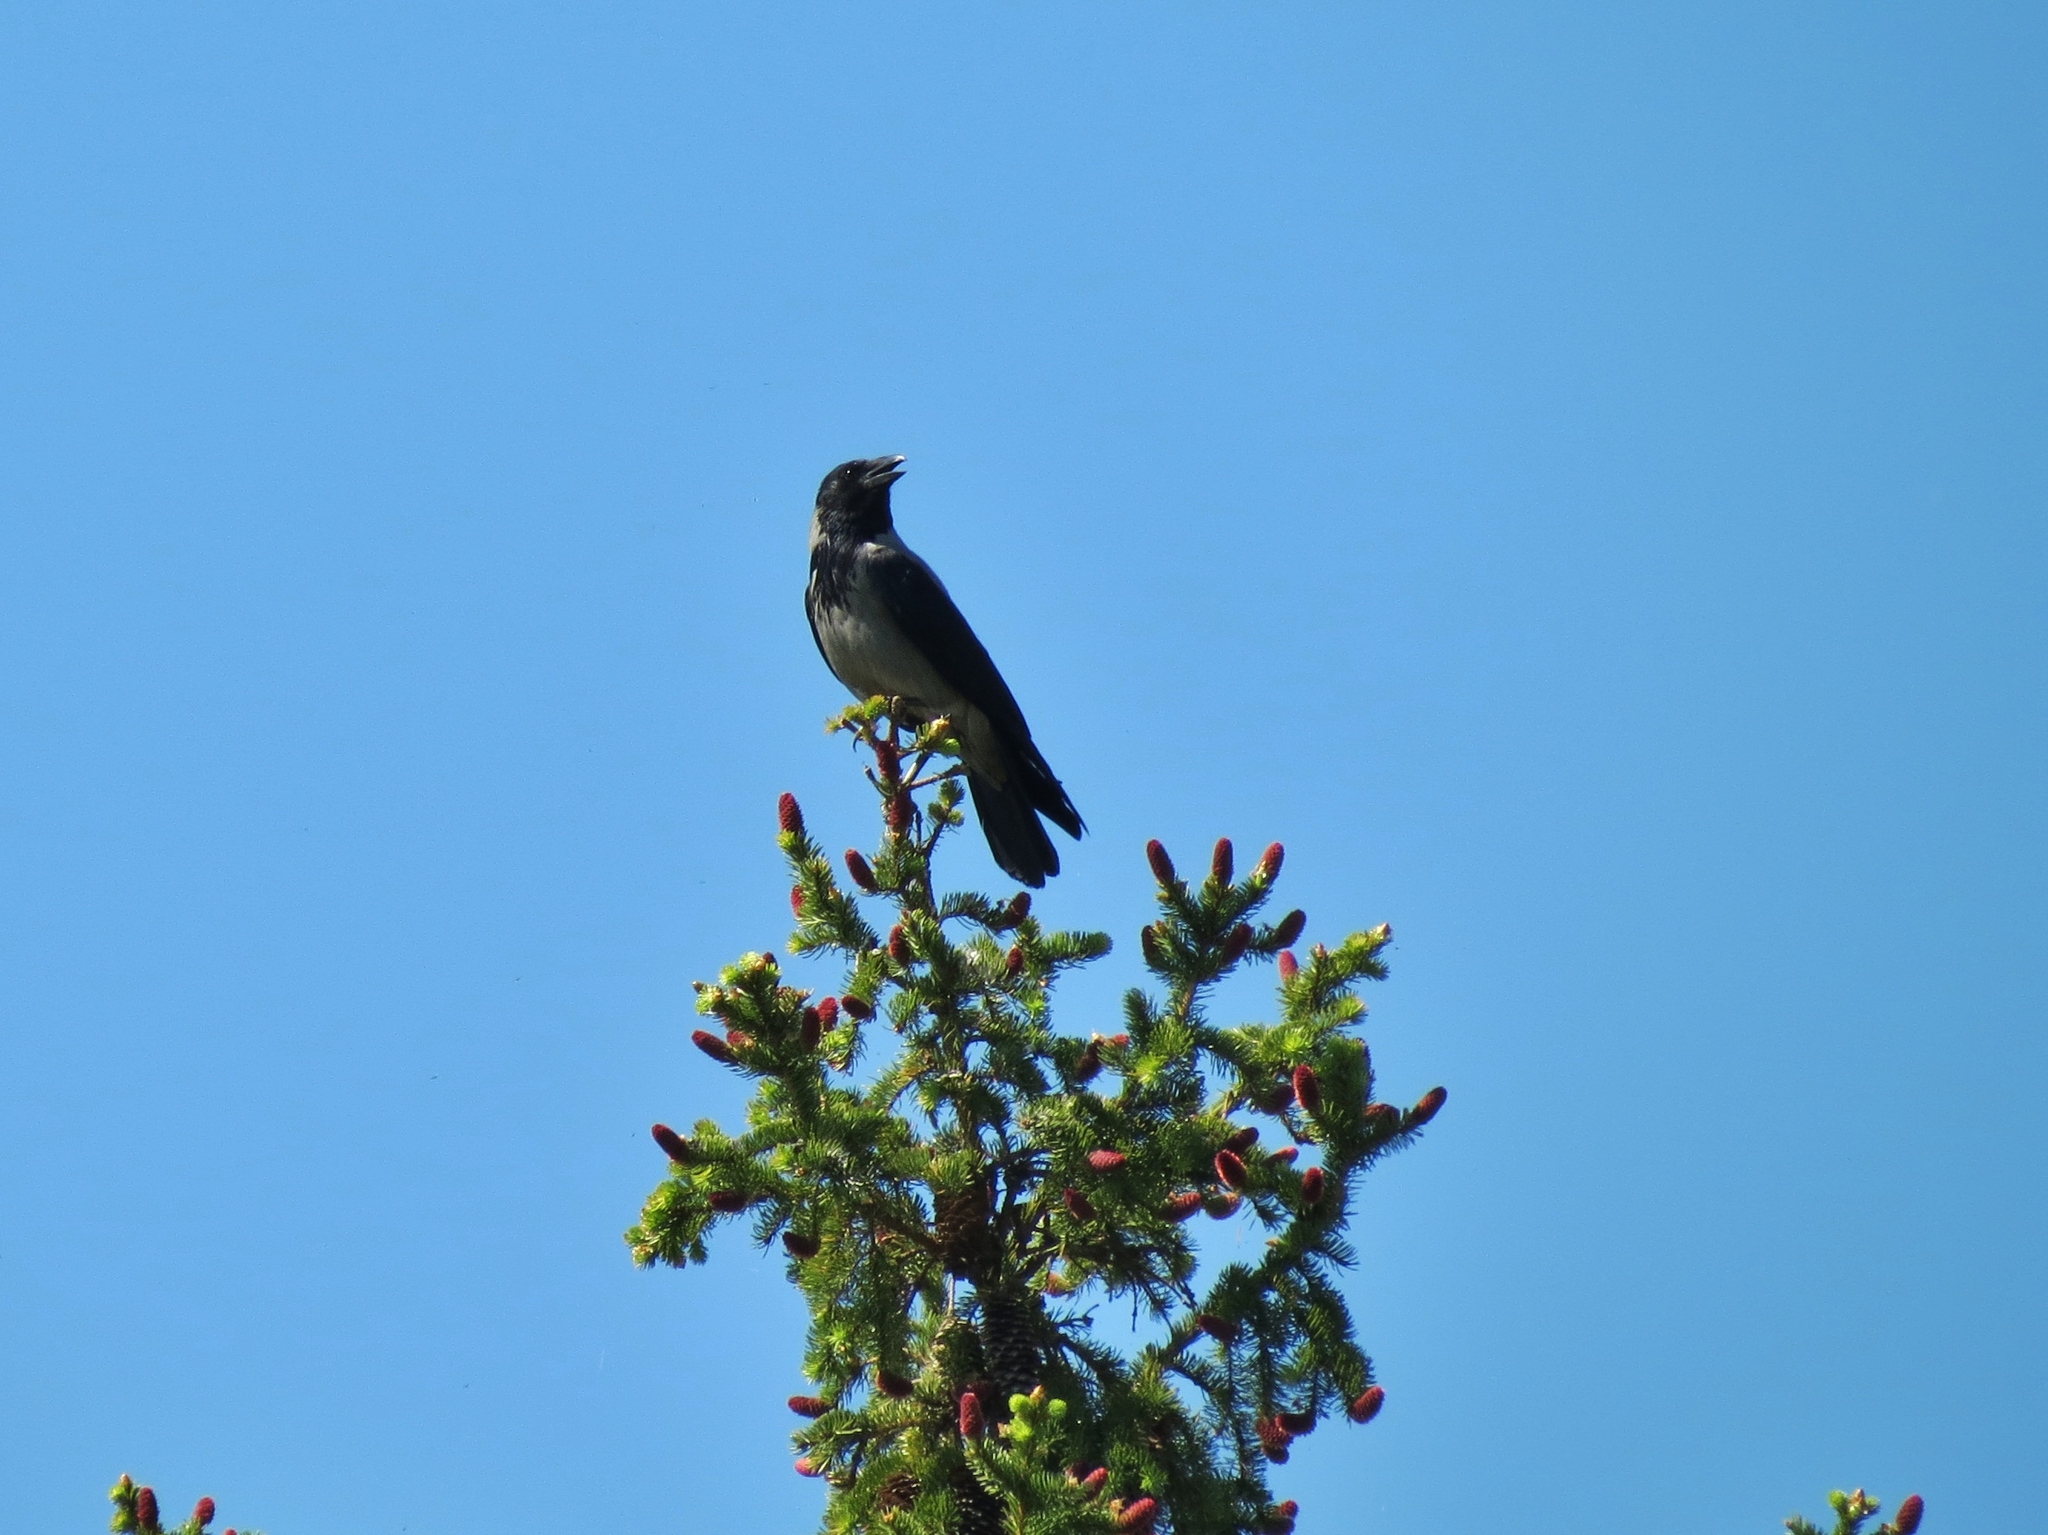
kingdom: Animalia
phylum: Chordata
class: Aves
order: Passeriformes
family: Corvidae
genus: Corvus
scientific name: Corvus cornix
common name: Hooded crow
